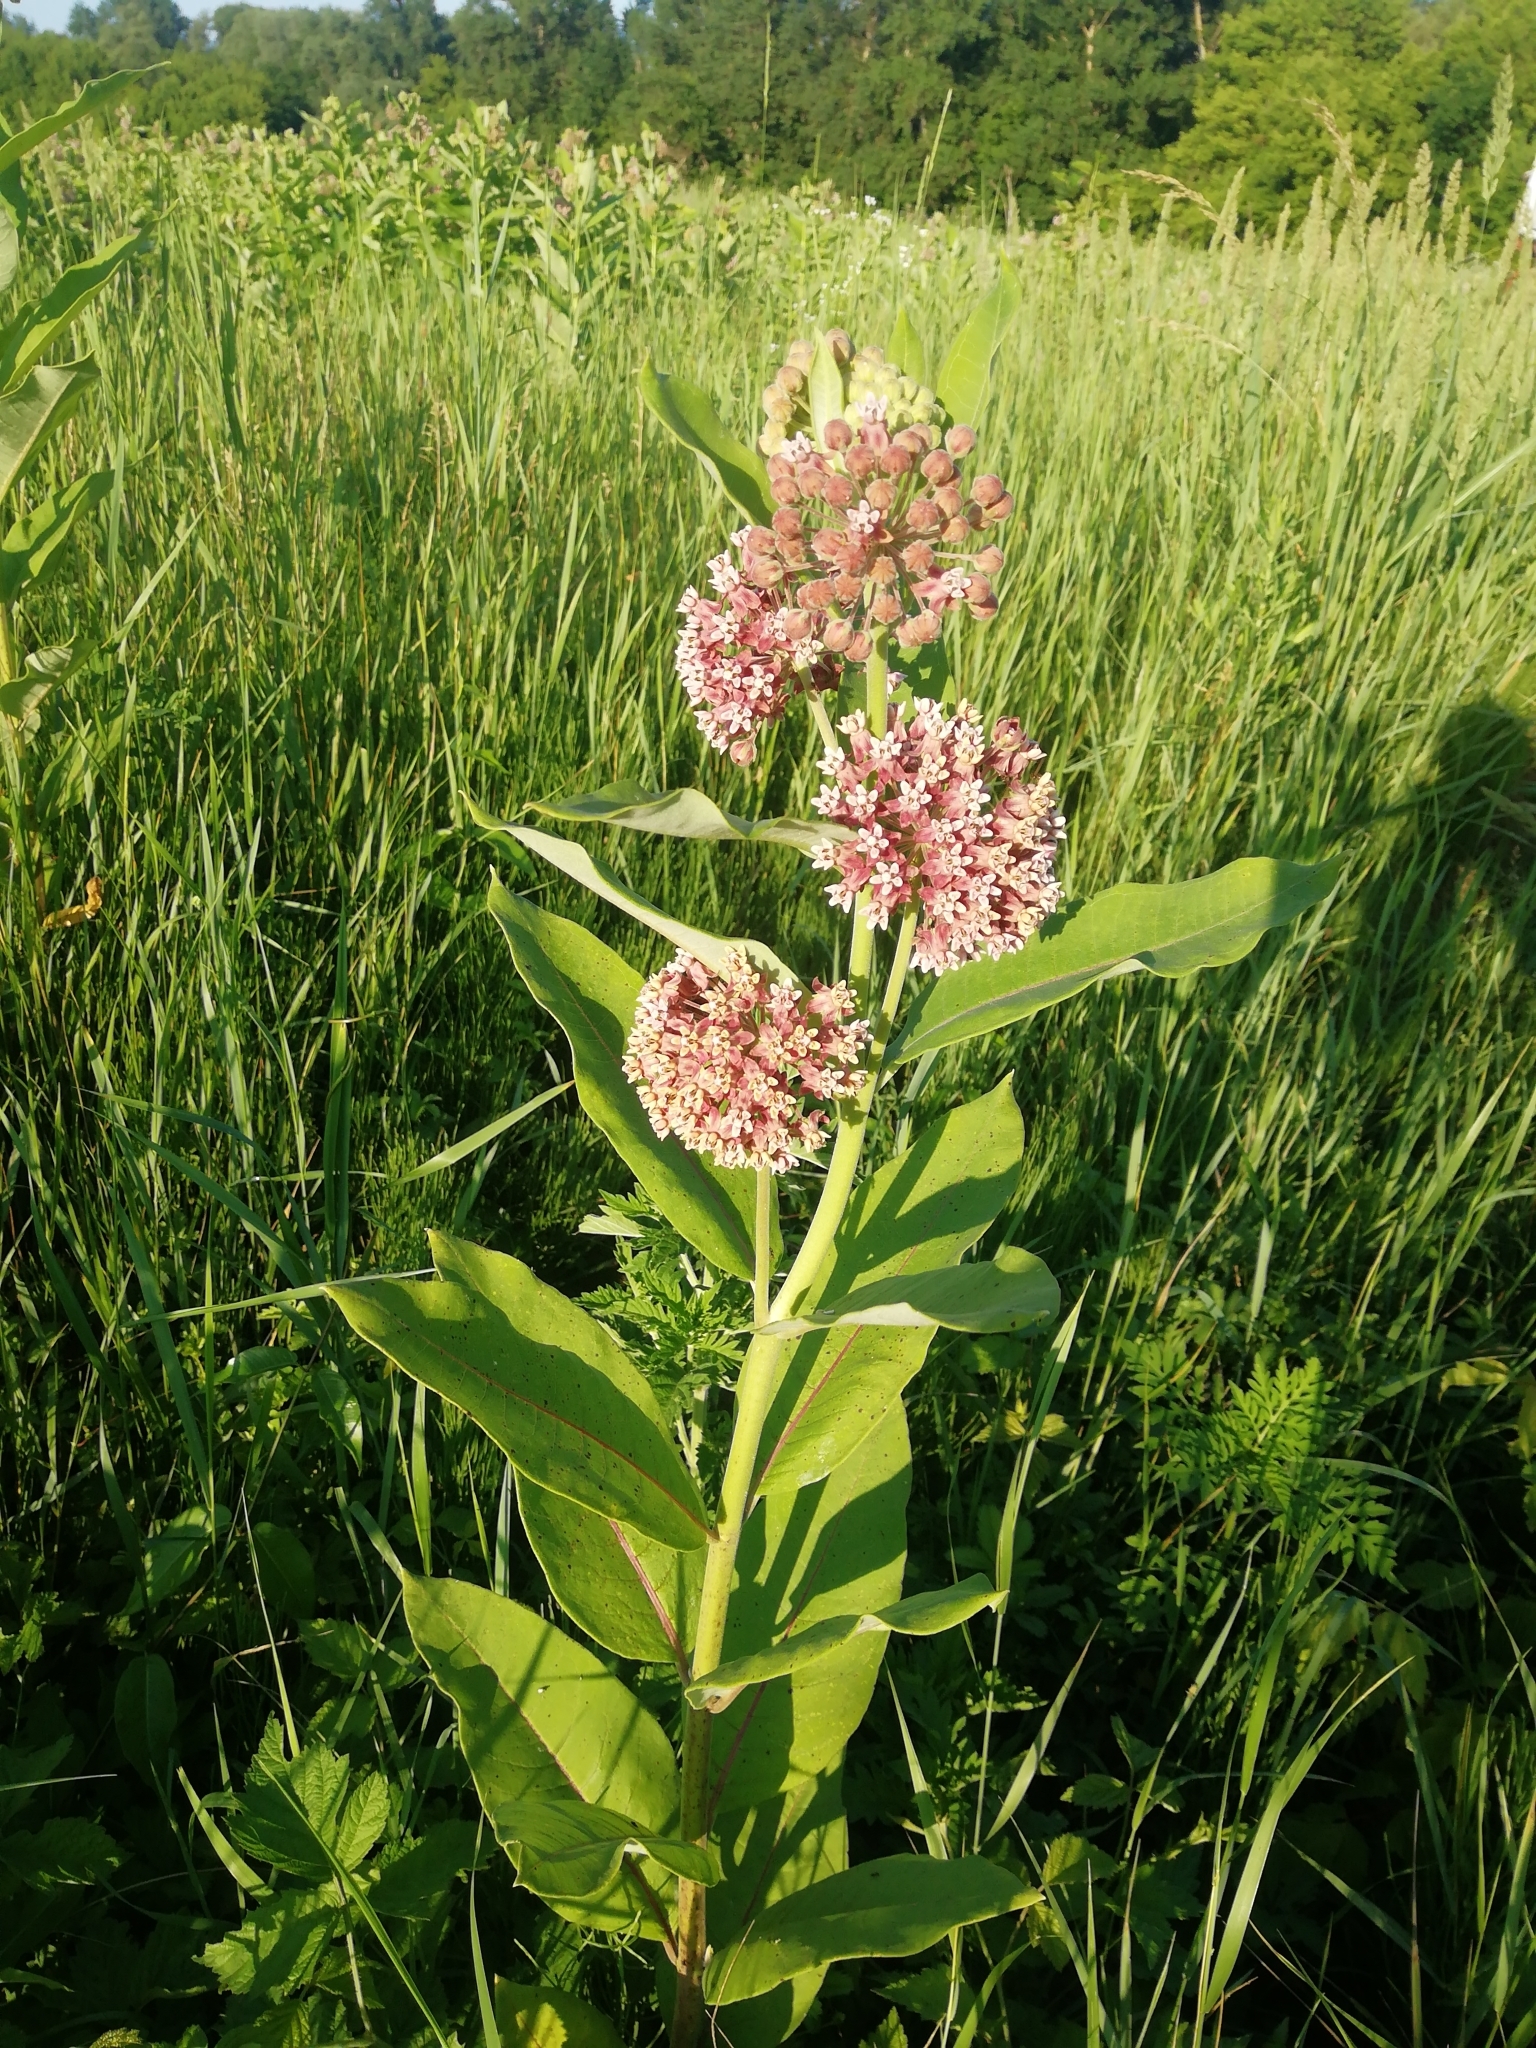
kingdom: Plantae
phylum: Tracheophyta
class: Magnoliopsida
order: Gentianales
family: Apocynaceae
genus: Asclepias
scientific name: Asclepias syriaca
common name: Common milkweed
